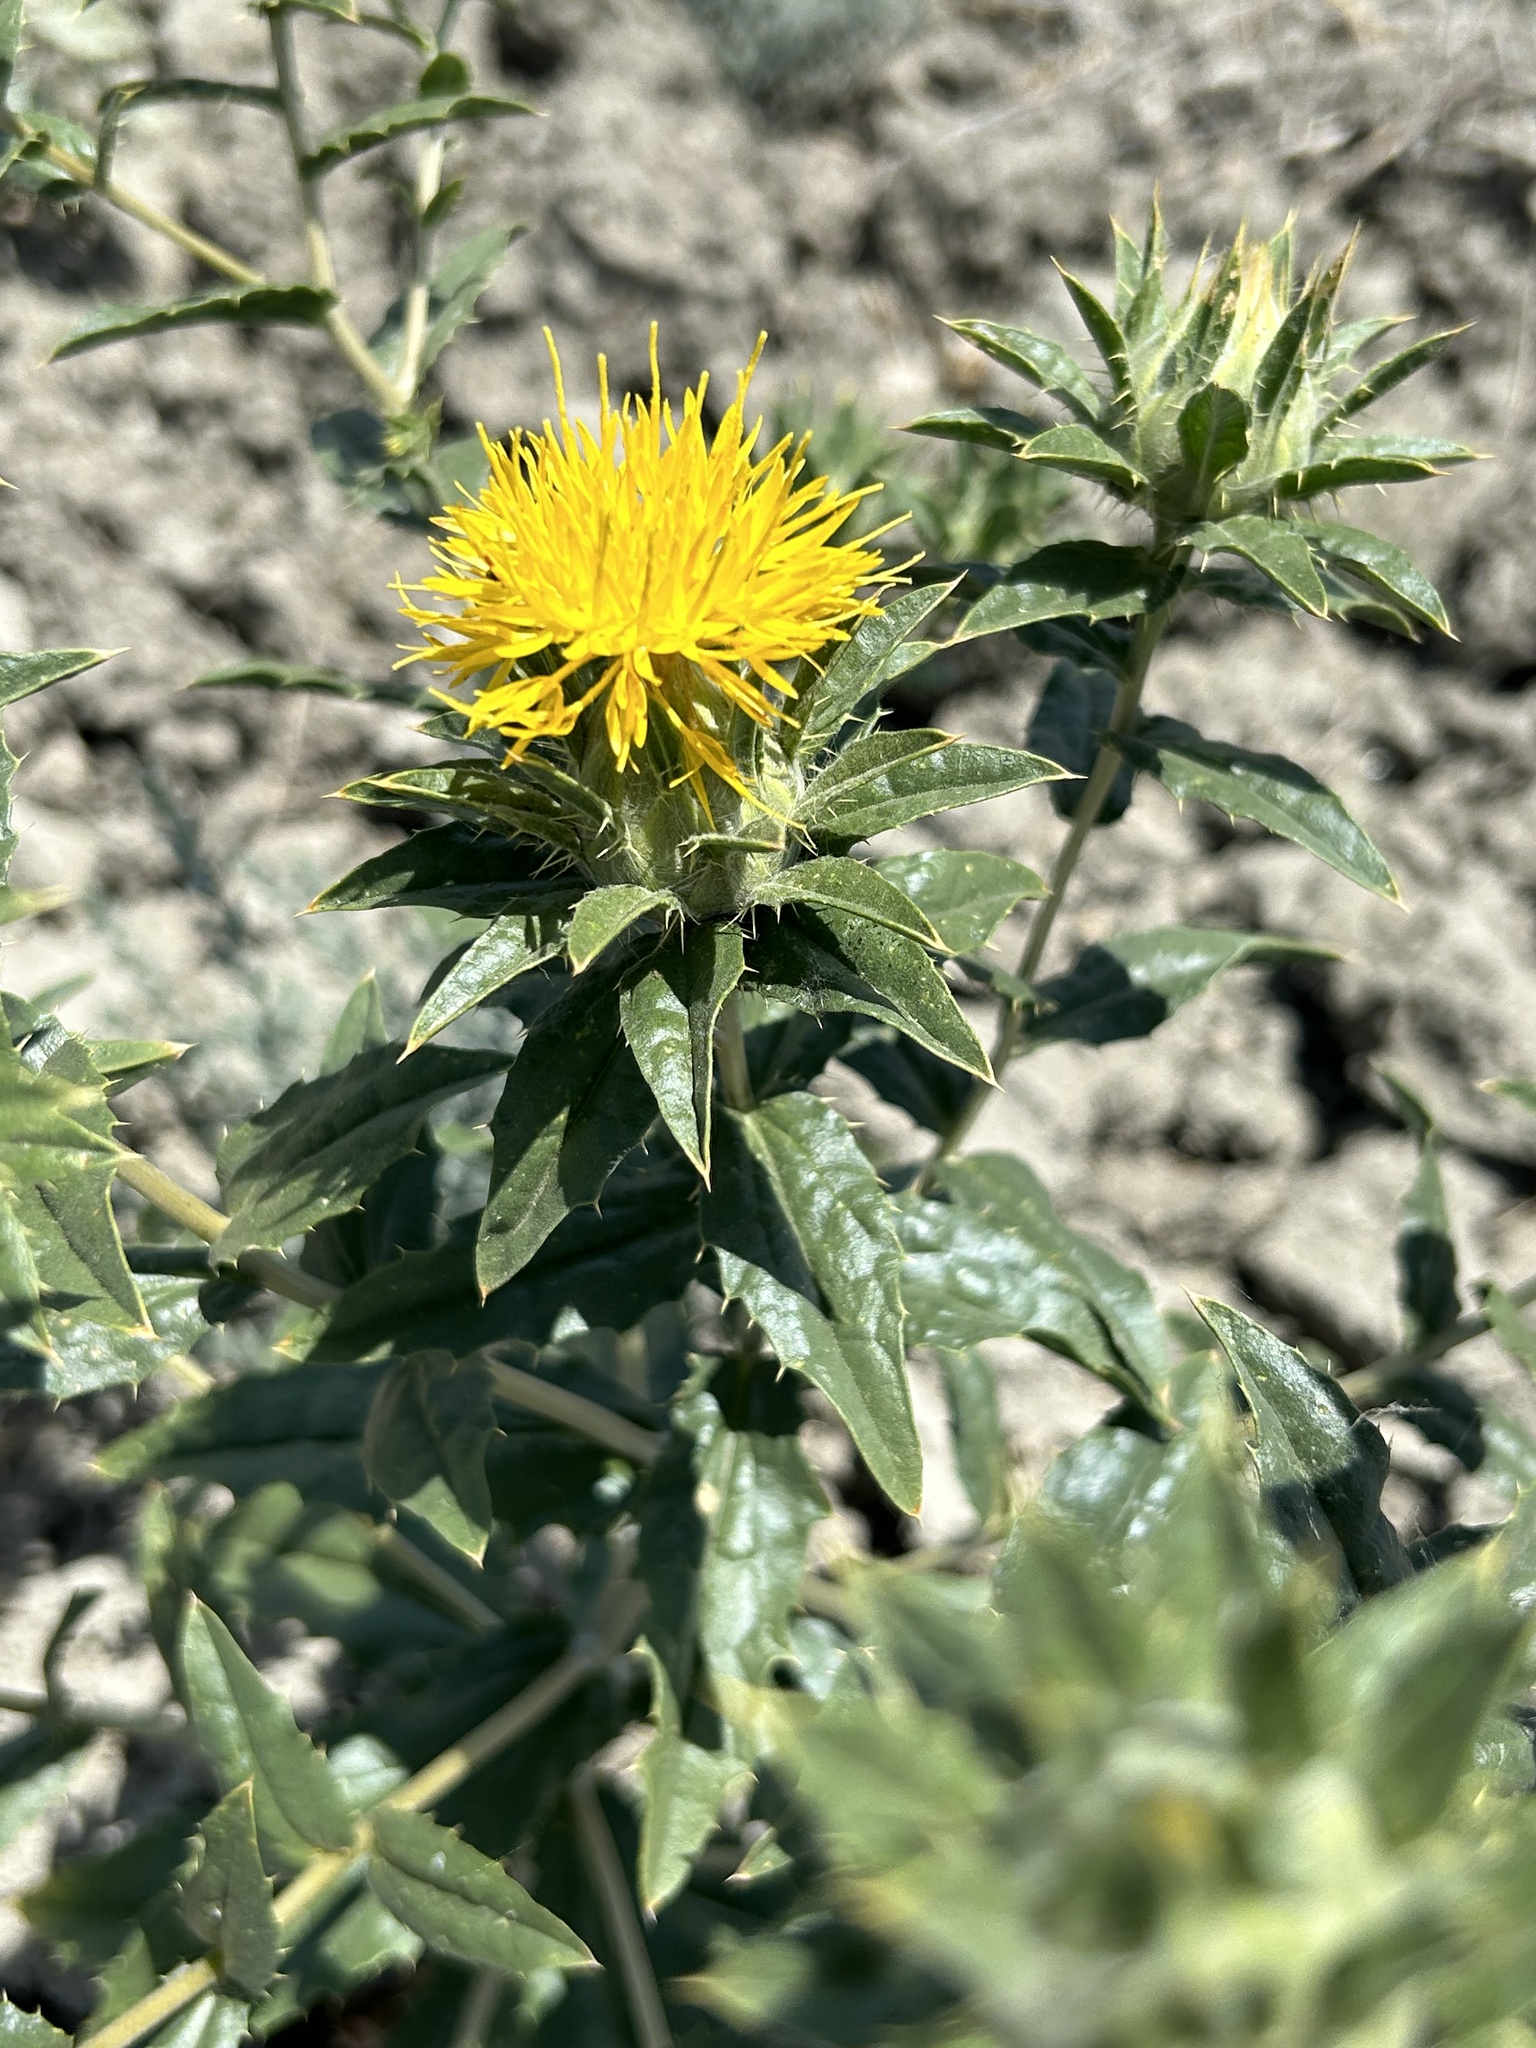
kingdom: Plantae
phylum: Tracheophyta
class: Magnoliopsida
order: Asterales
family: Asteraceae
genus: Carthamus
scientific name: Carthamus tinctorius
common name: Safflower
